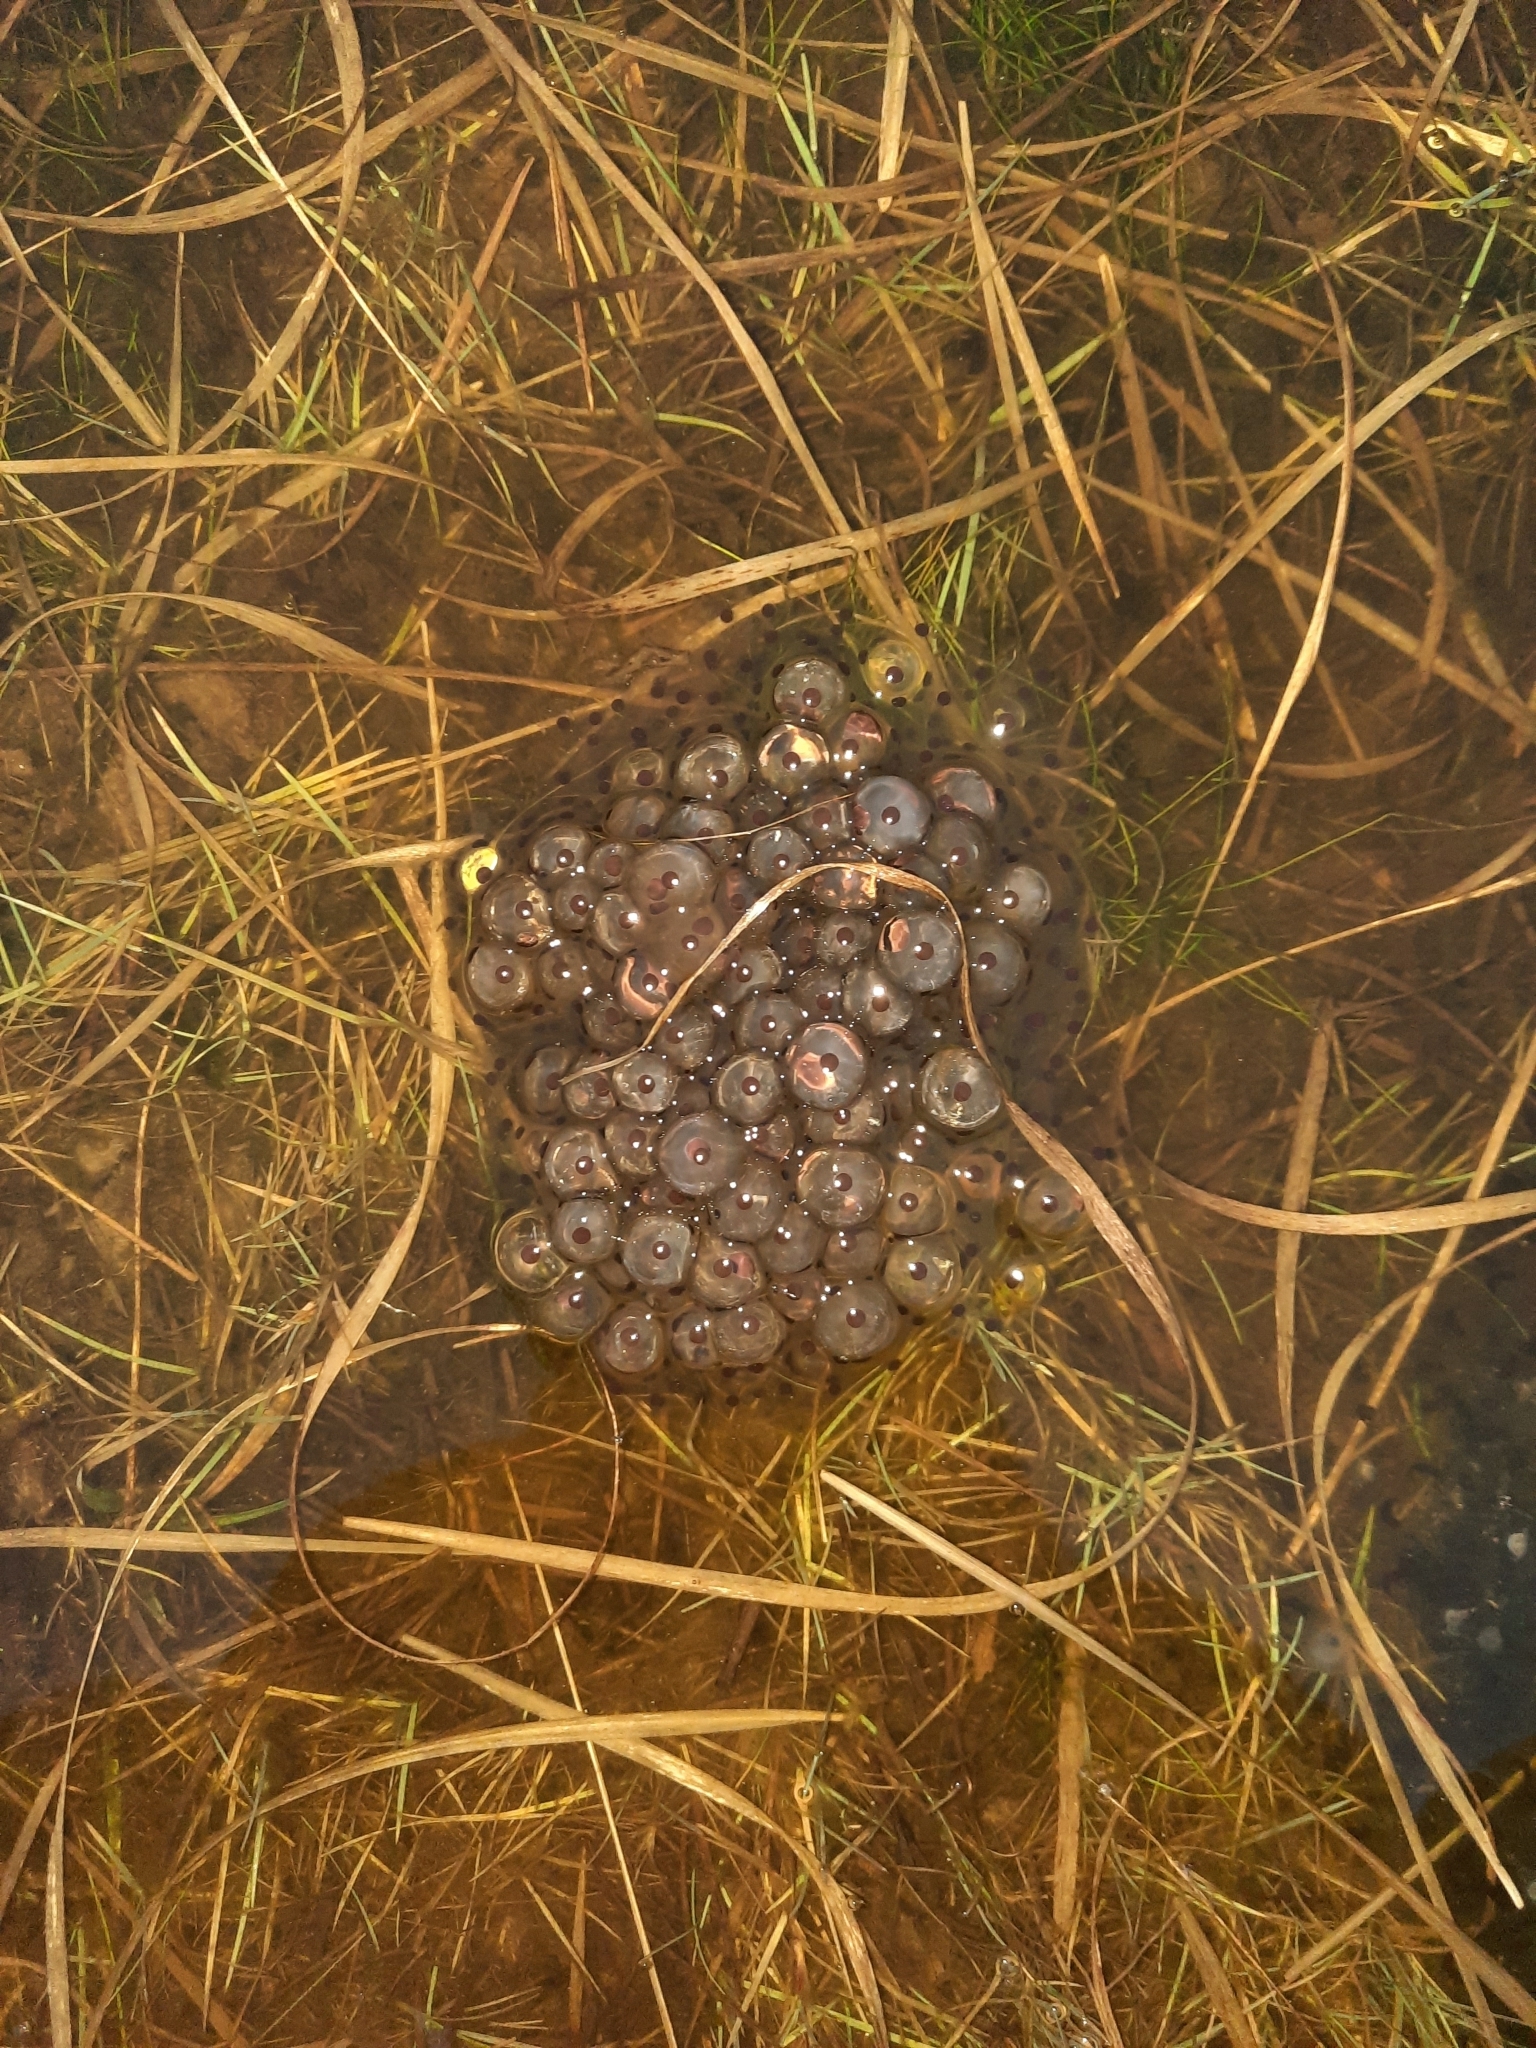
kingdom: Animalia
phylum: Chordata
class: Amphibia
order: Anura
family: Ranidae
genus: Rana
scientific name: Rana temporaria
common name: Common frog
